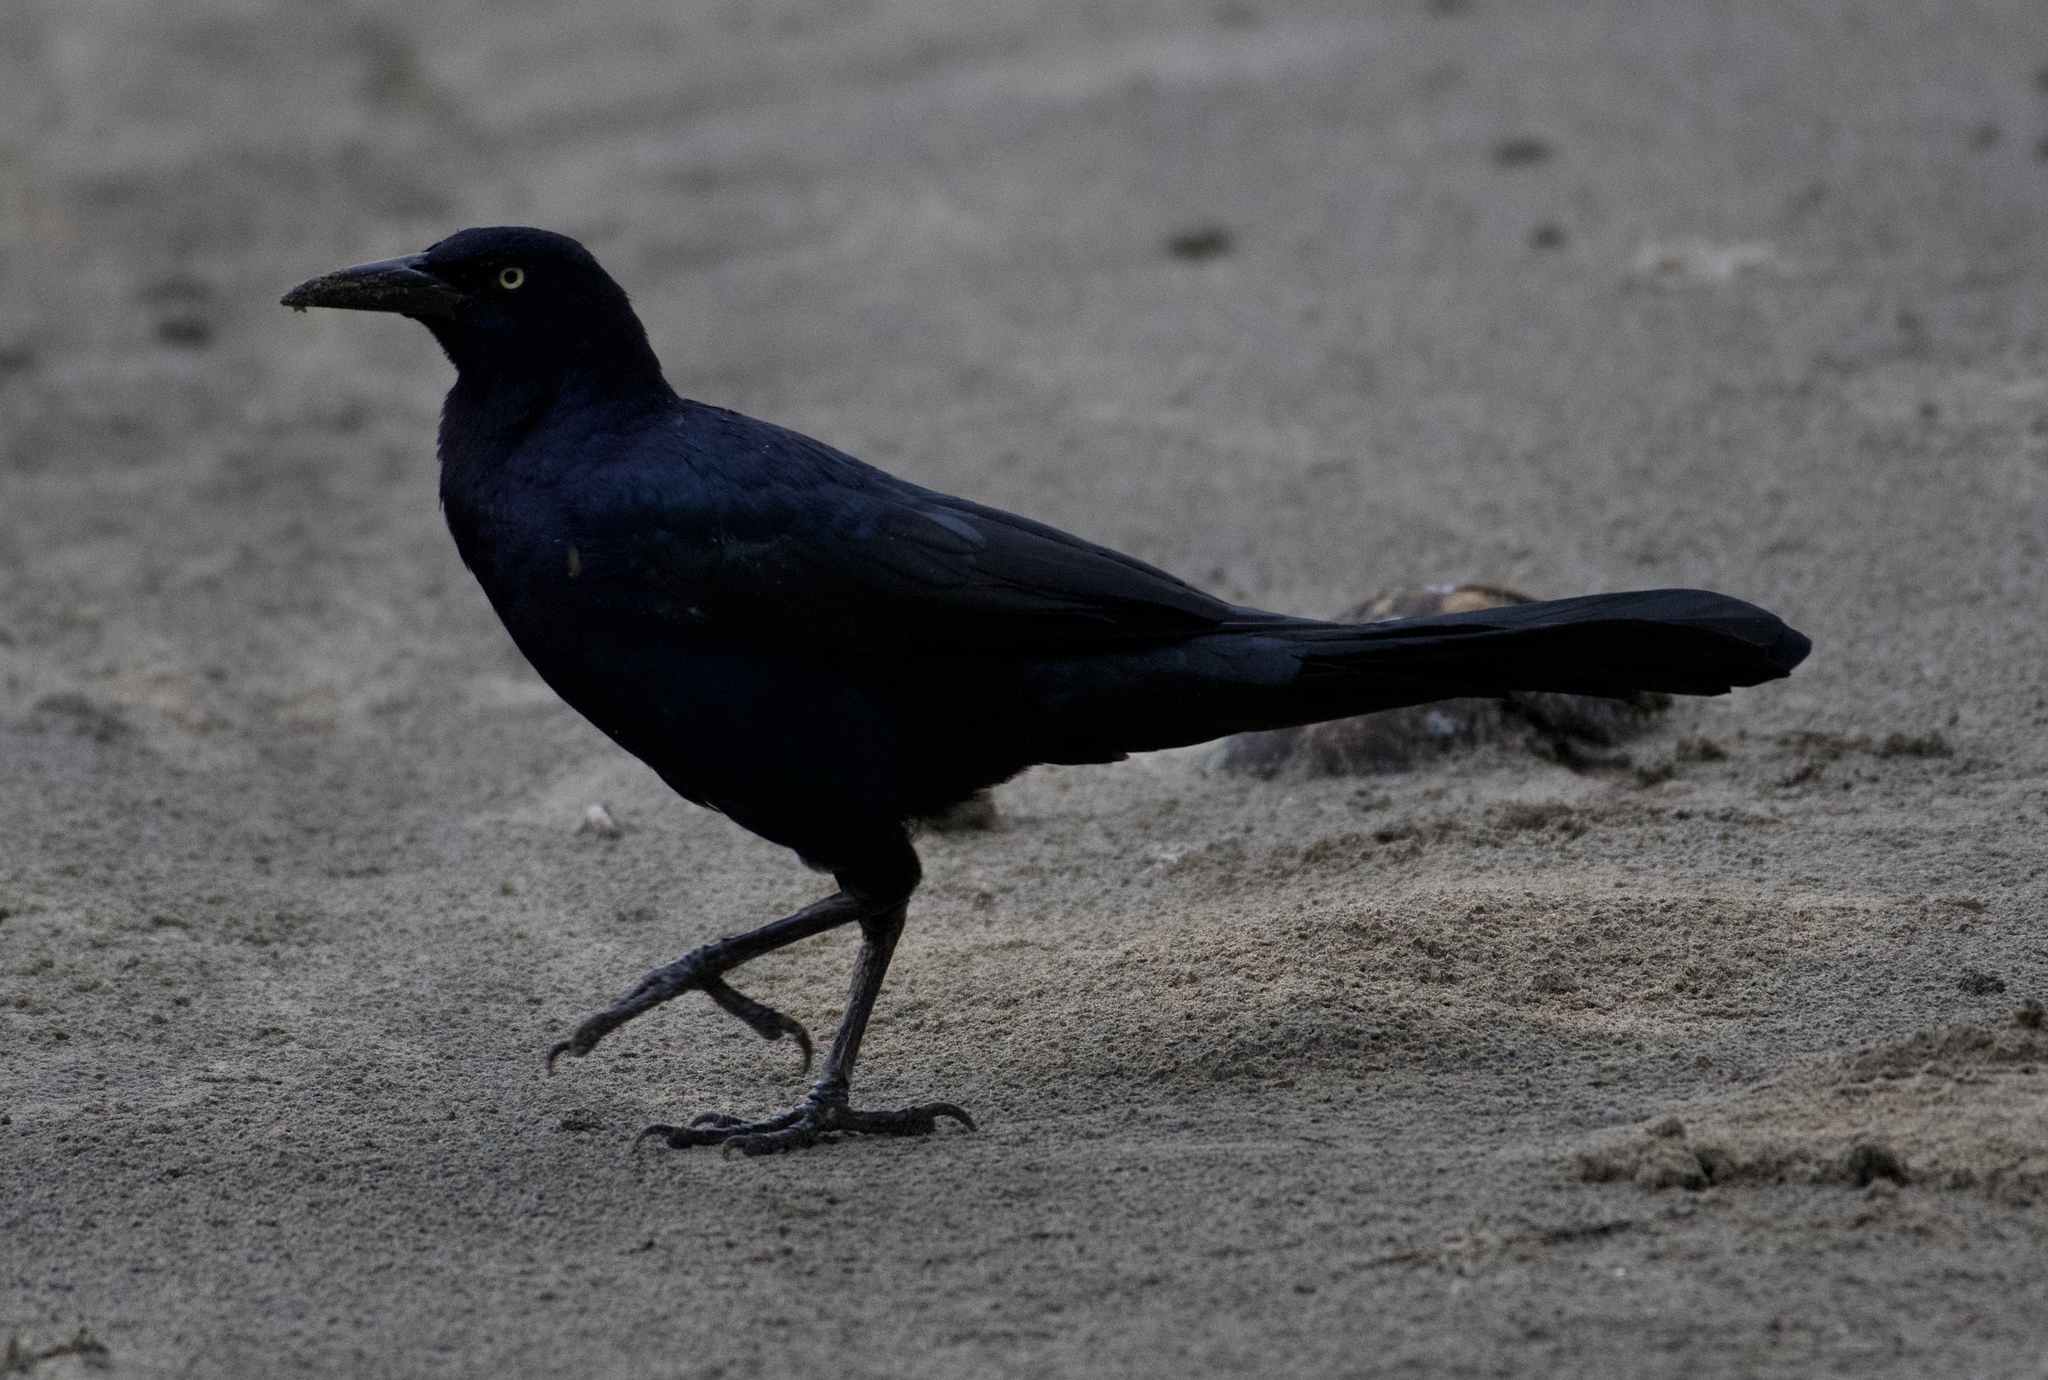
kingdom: Animalia
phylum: Chordata
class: Aves
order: Passeriformes
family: Icteridae
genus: Quiscalus
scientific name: Quiscalus mexicanus
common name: Great-tailed grackle
